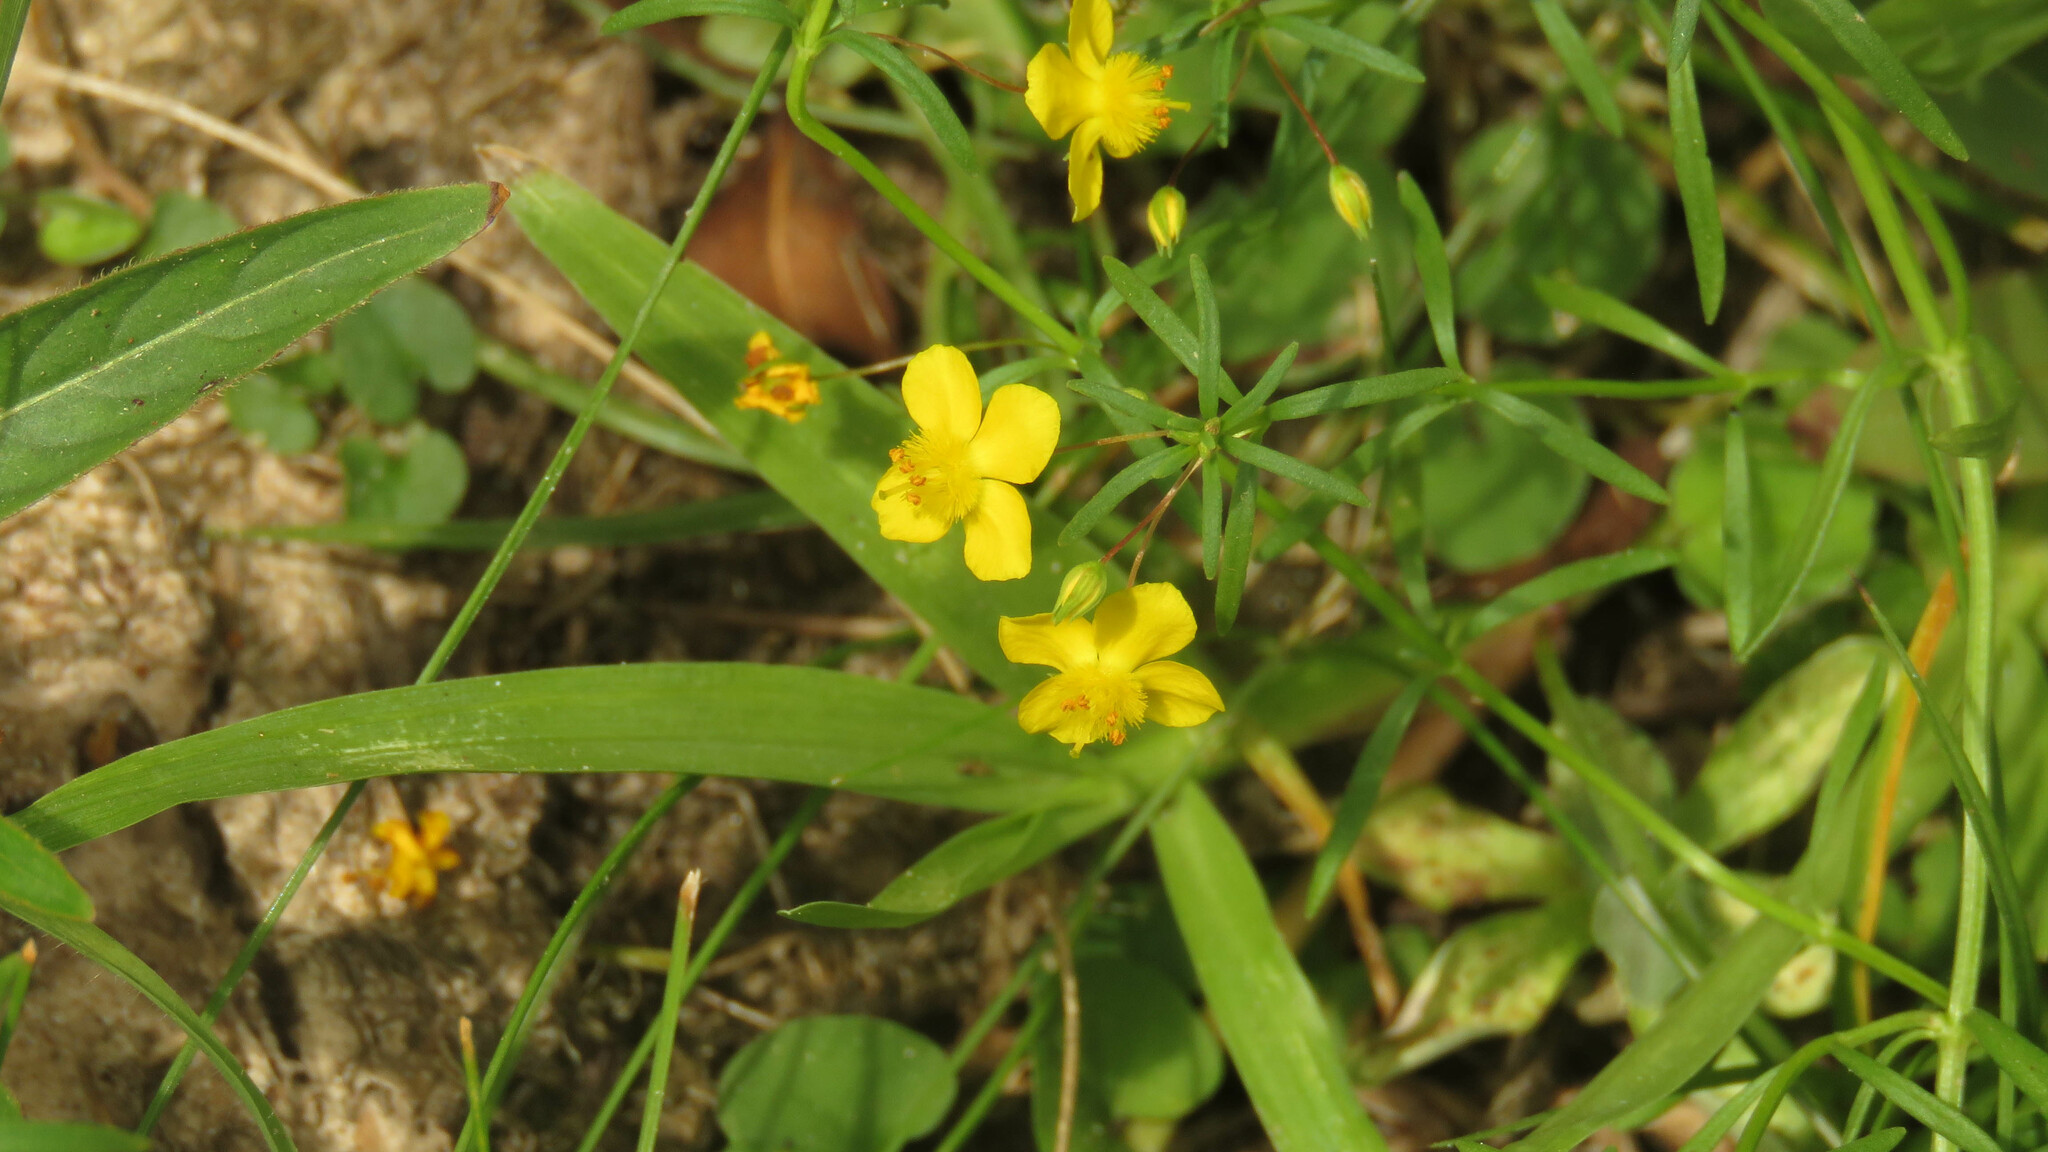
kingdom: Plantae
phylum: Tracheophyta
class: Magnoliopsida
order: Lamiales
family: Plantaginaceae
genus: Scoparia
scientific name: Scoparia montevidensis
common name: Broomwort
